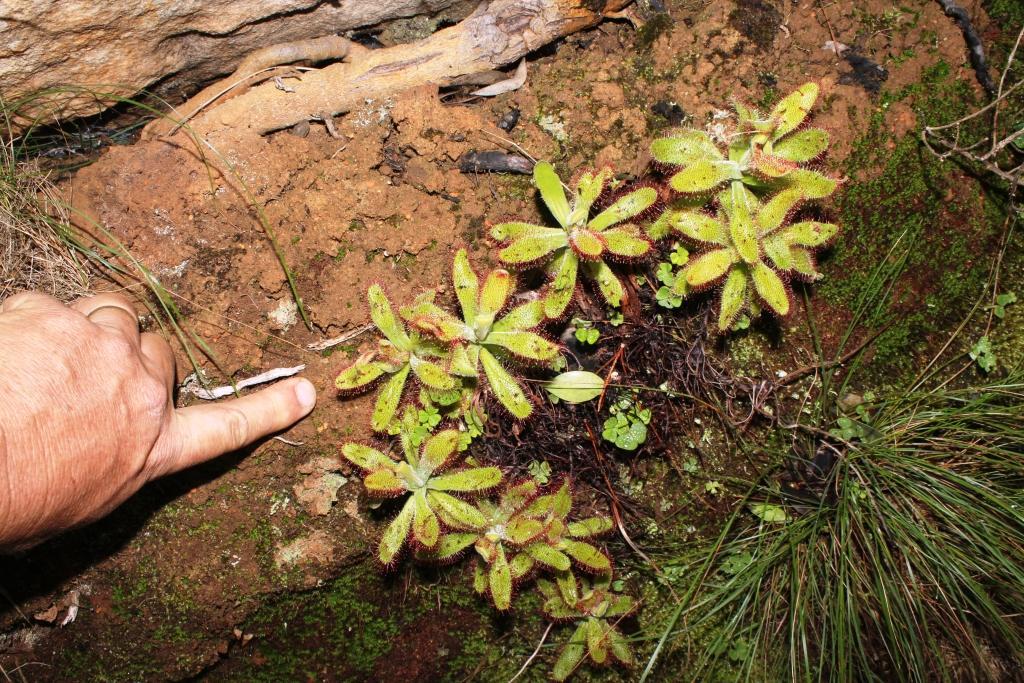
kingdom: Plantae
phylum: Tracheophyta
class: Magnoliopsida
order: Caryophyllales
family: Droseraceae
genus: Drosera
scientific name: Drosera hilaris
